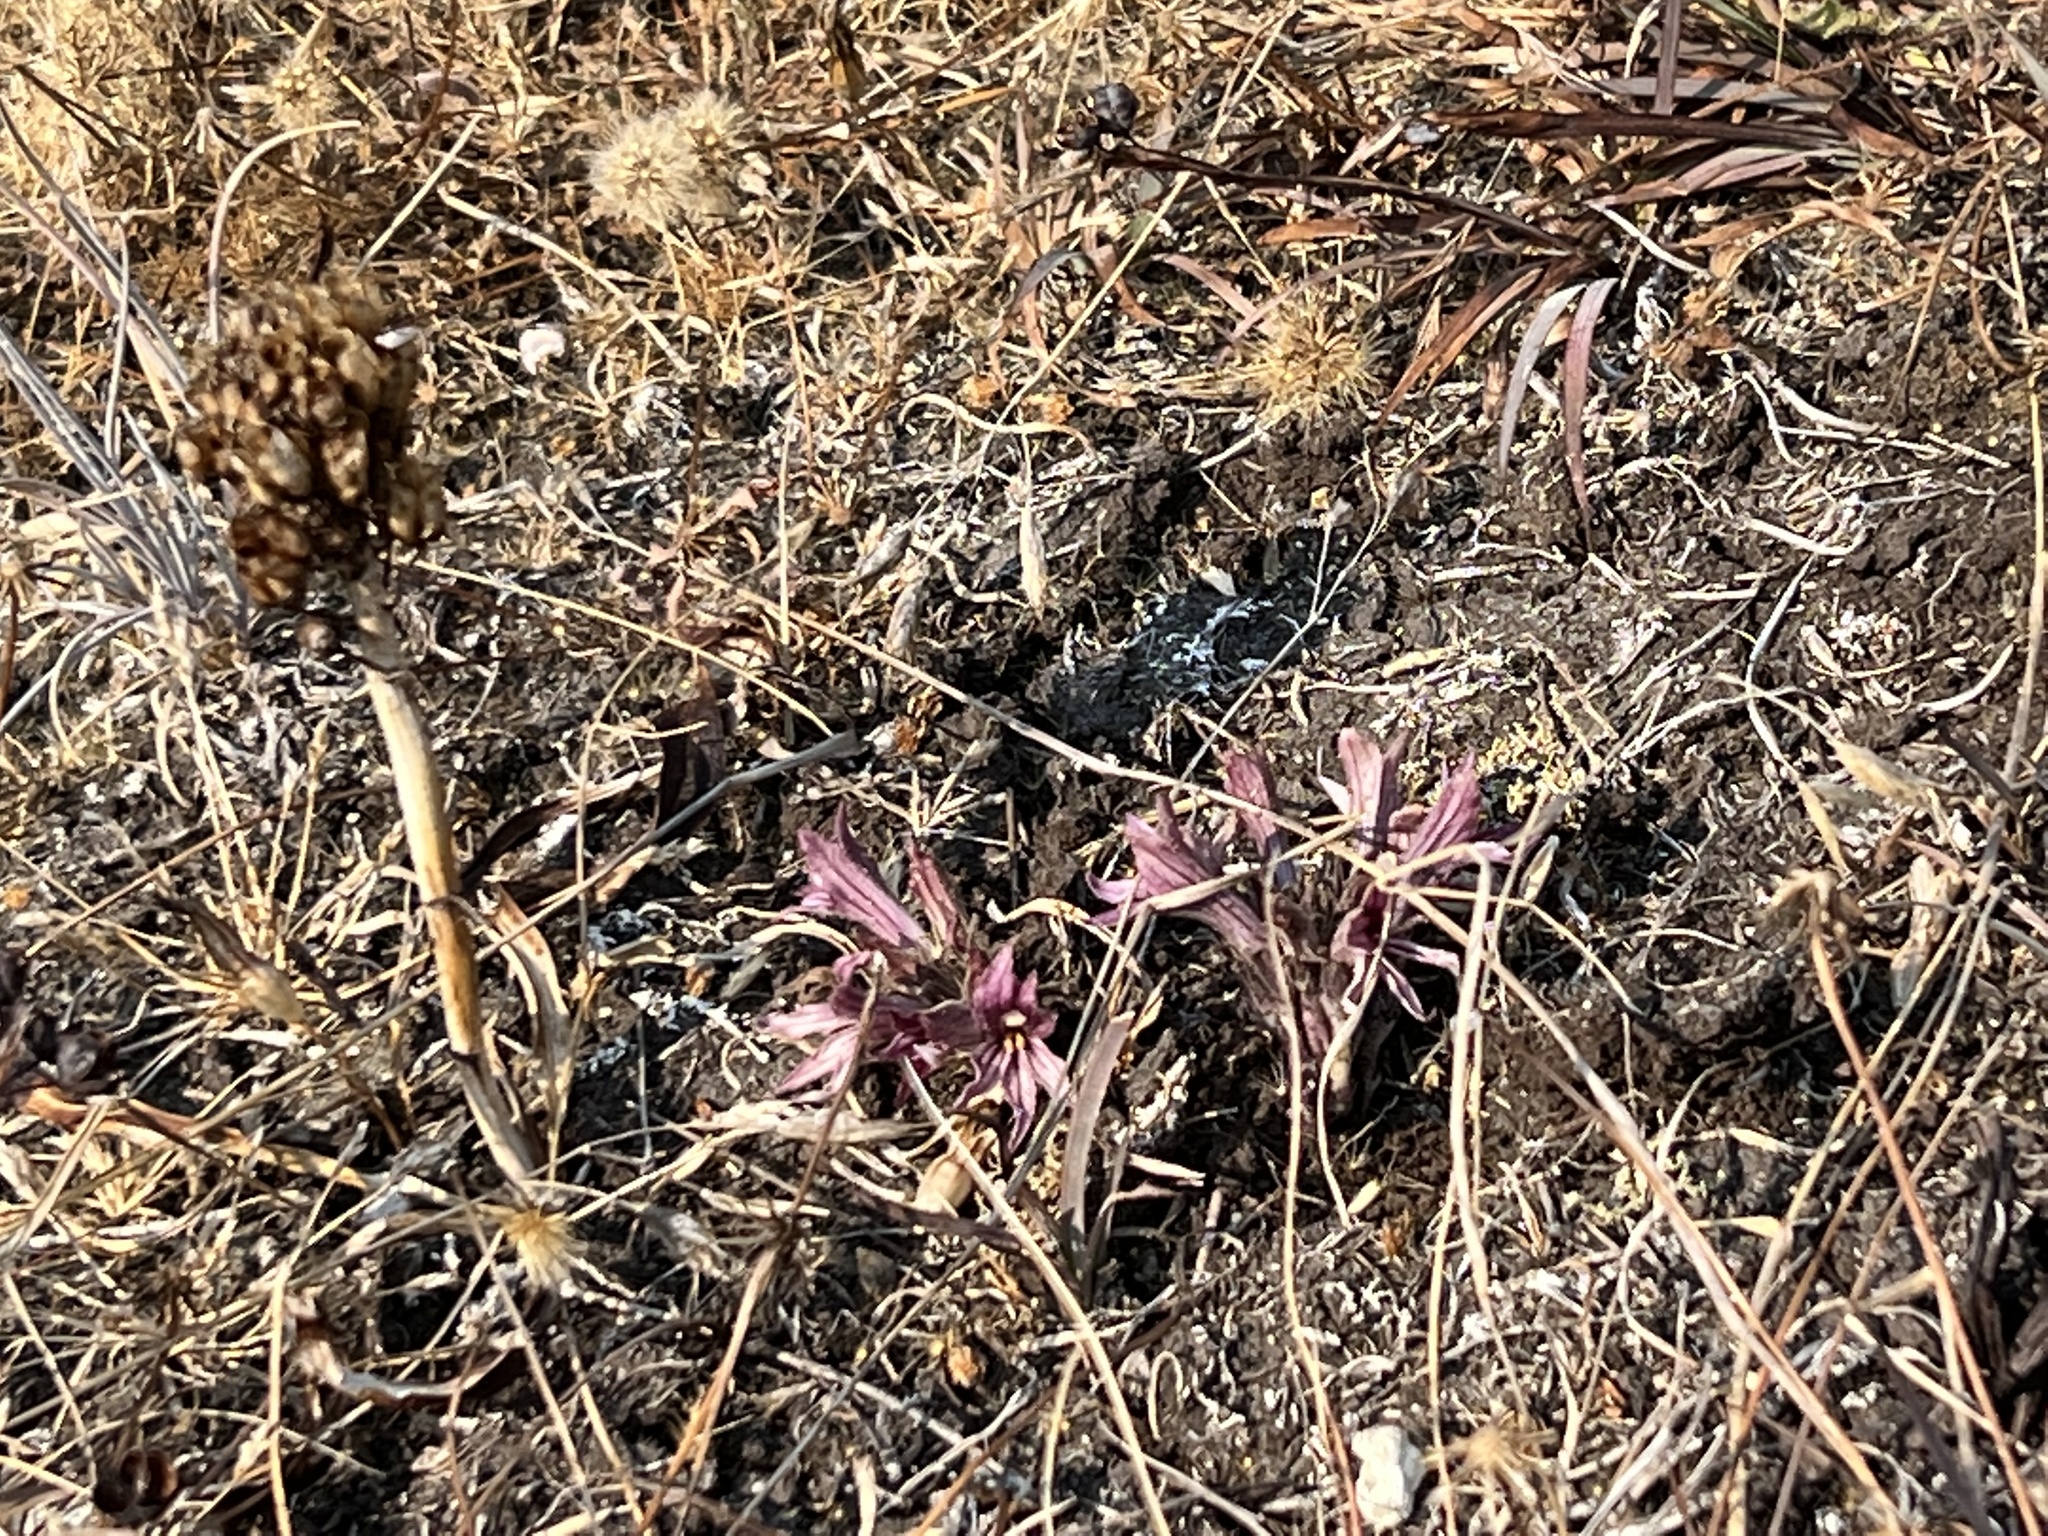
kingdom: Plantae
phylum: Tracheophyta
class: Magnoliopsida
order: Lamiales
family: Orobanchaceae
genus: Aphyllon
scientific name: Aphyllon californicum
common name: California broomrape
